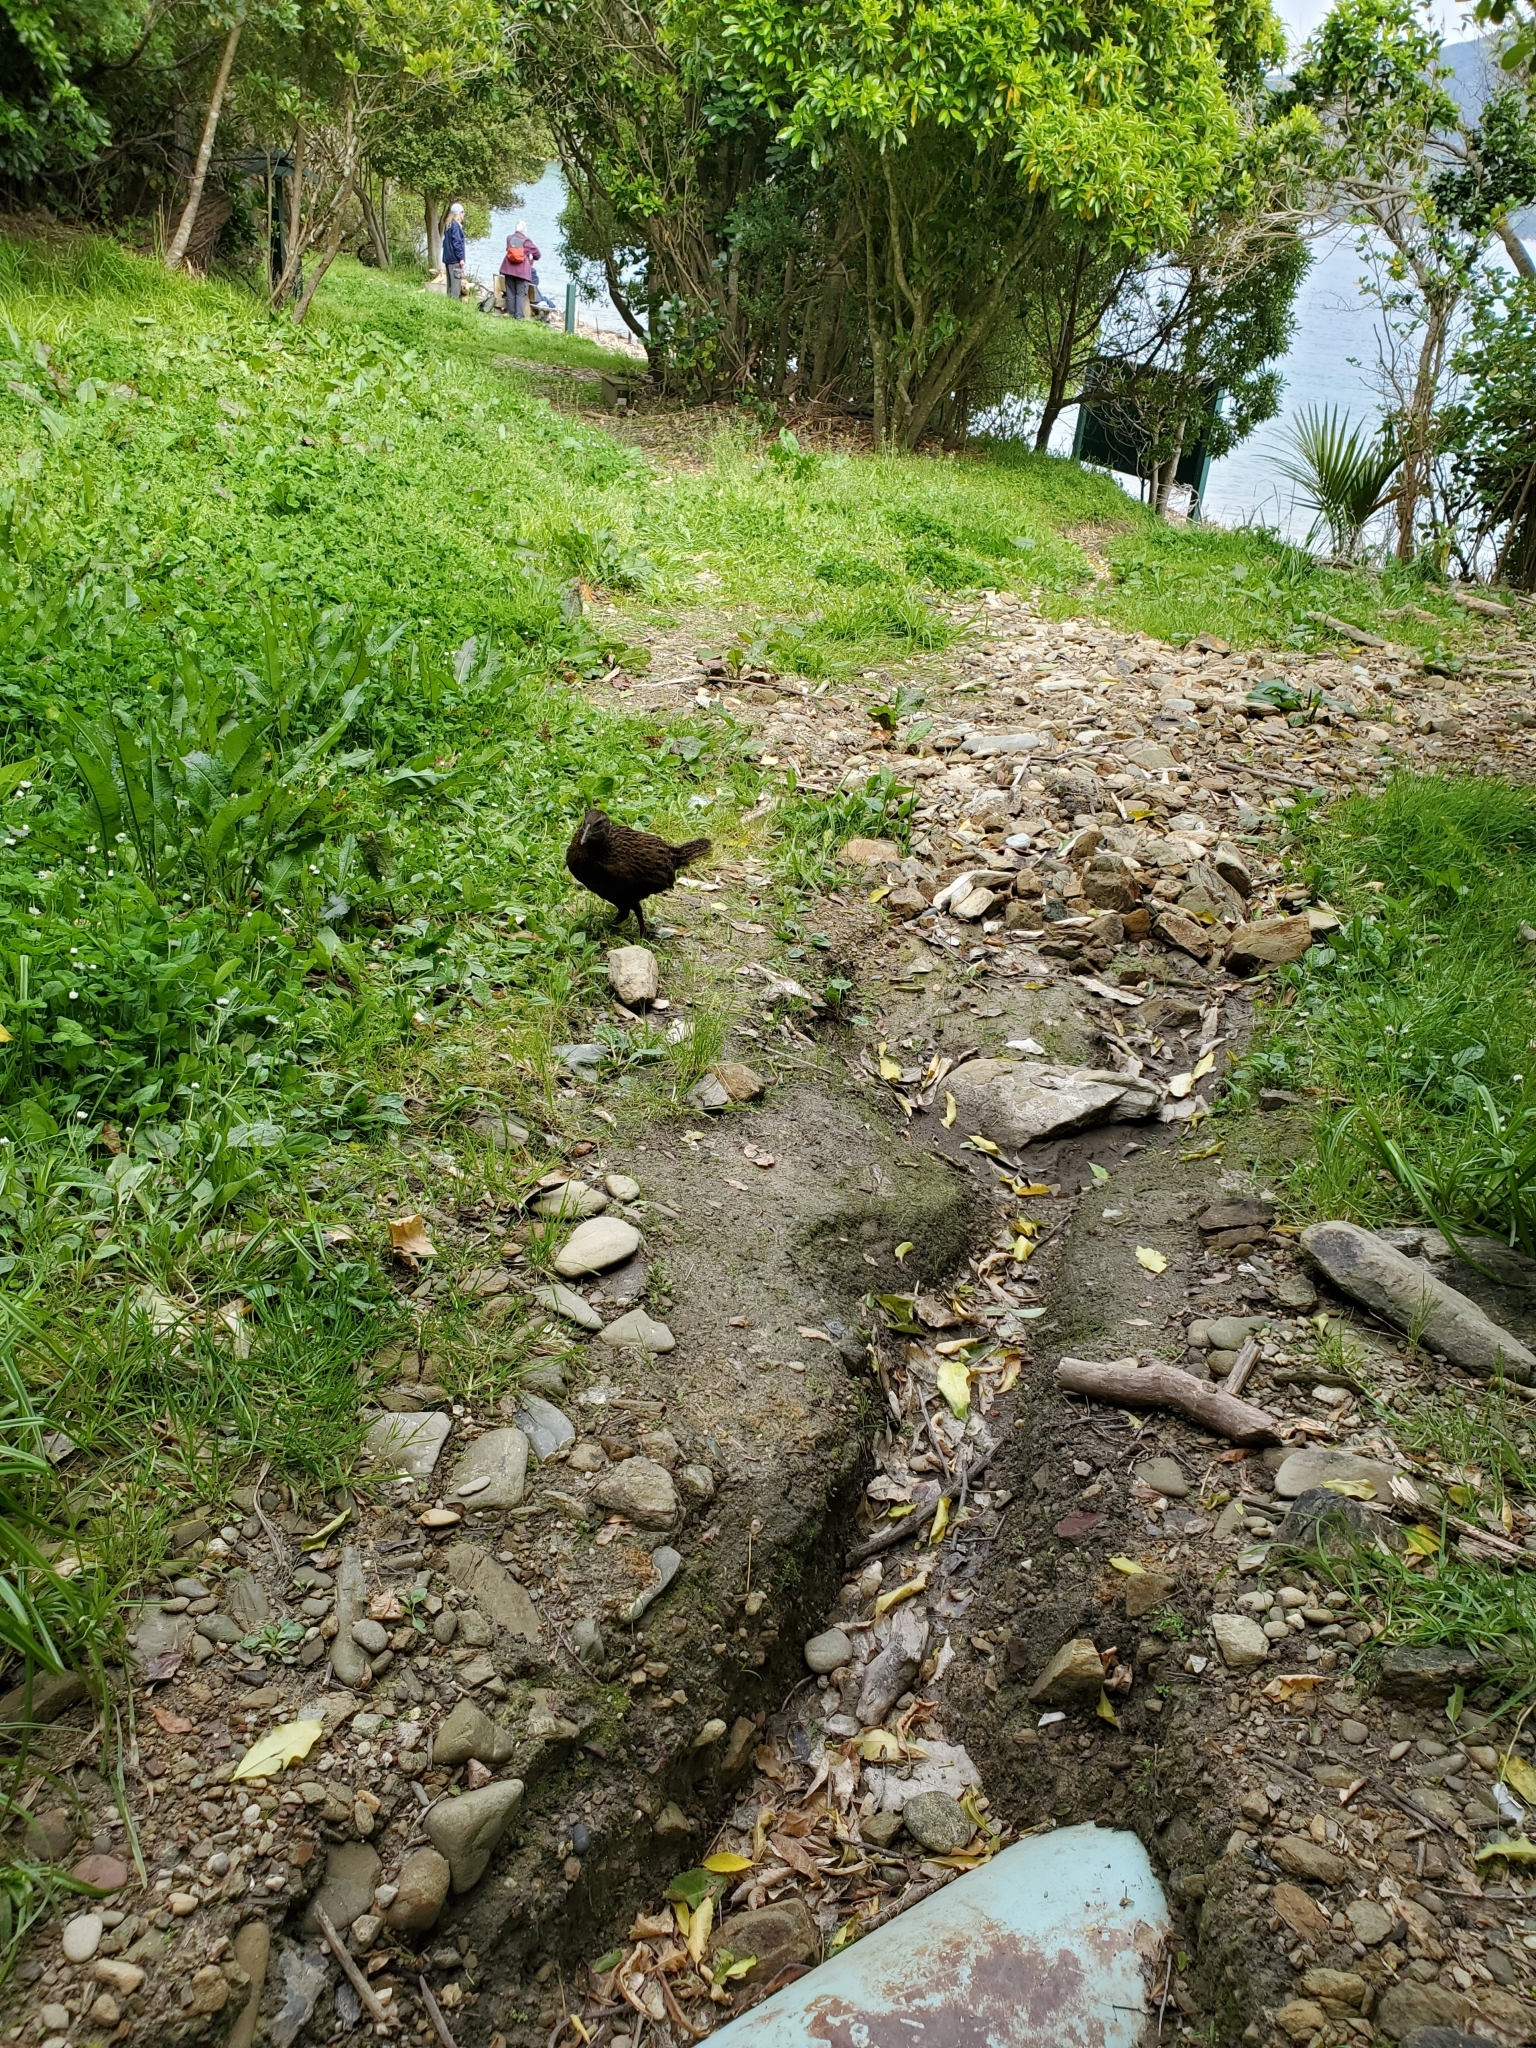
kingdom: Animalia
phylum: Chordata
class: Aves
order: Gruiformes
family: Rallidae
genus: Gallirallus
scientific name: Gallirallus australis
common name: Weka
